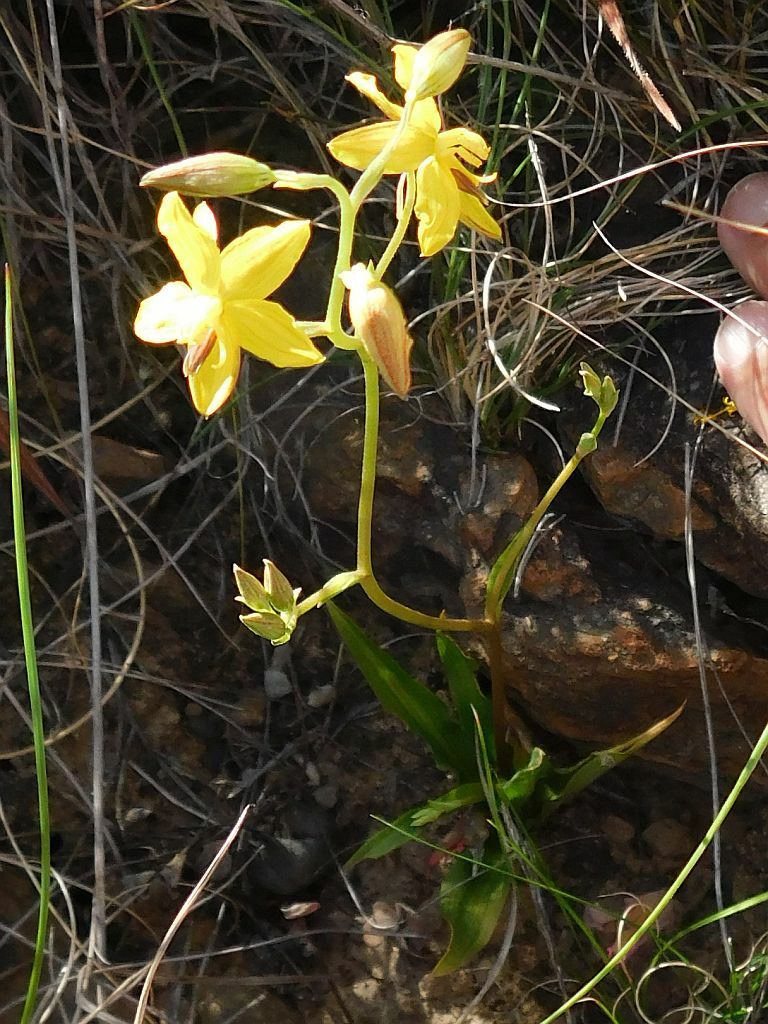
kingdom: Plantae
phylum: Tracheophyta
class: Liliopsida
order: Asparagales
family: Tecophilaeaceae
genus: Cyanella
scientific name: Cyanella lutea
